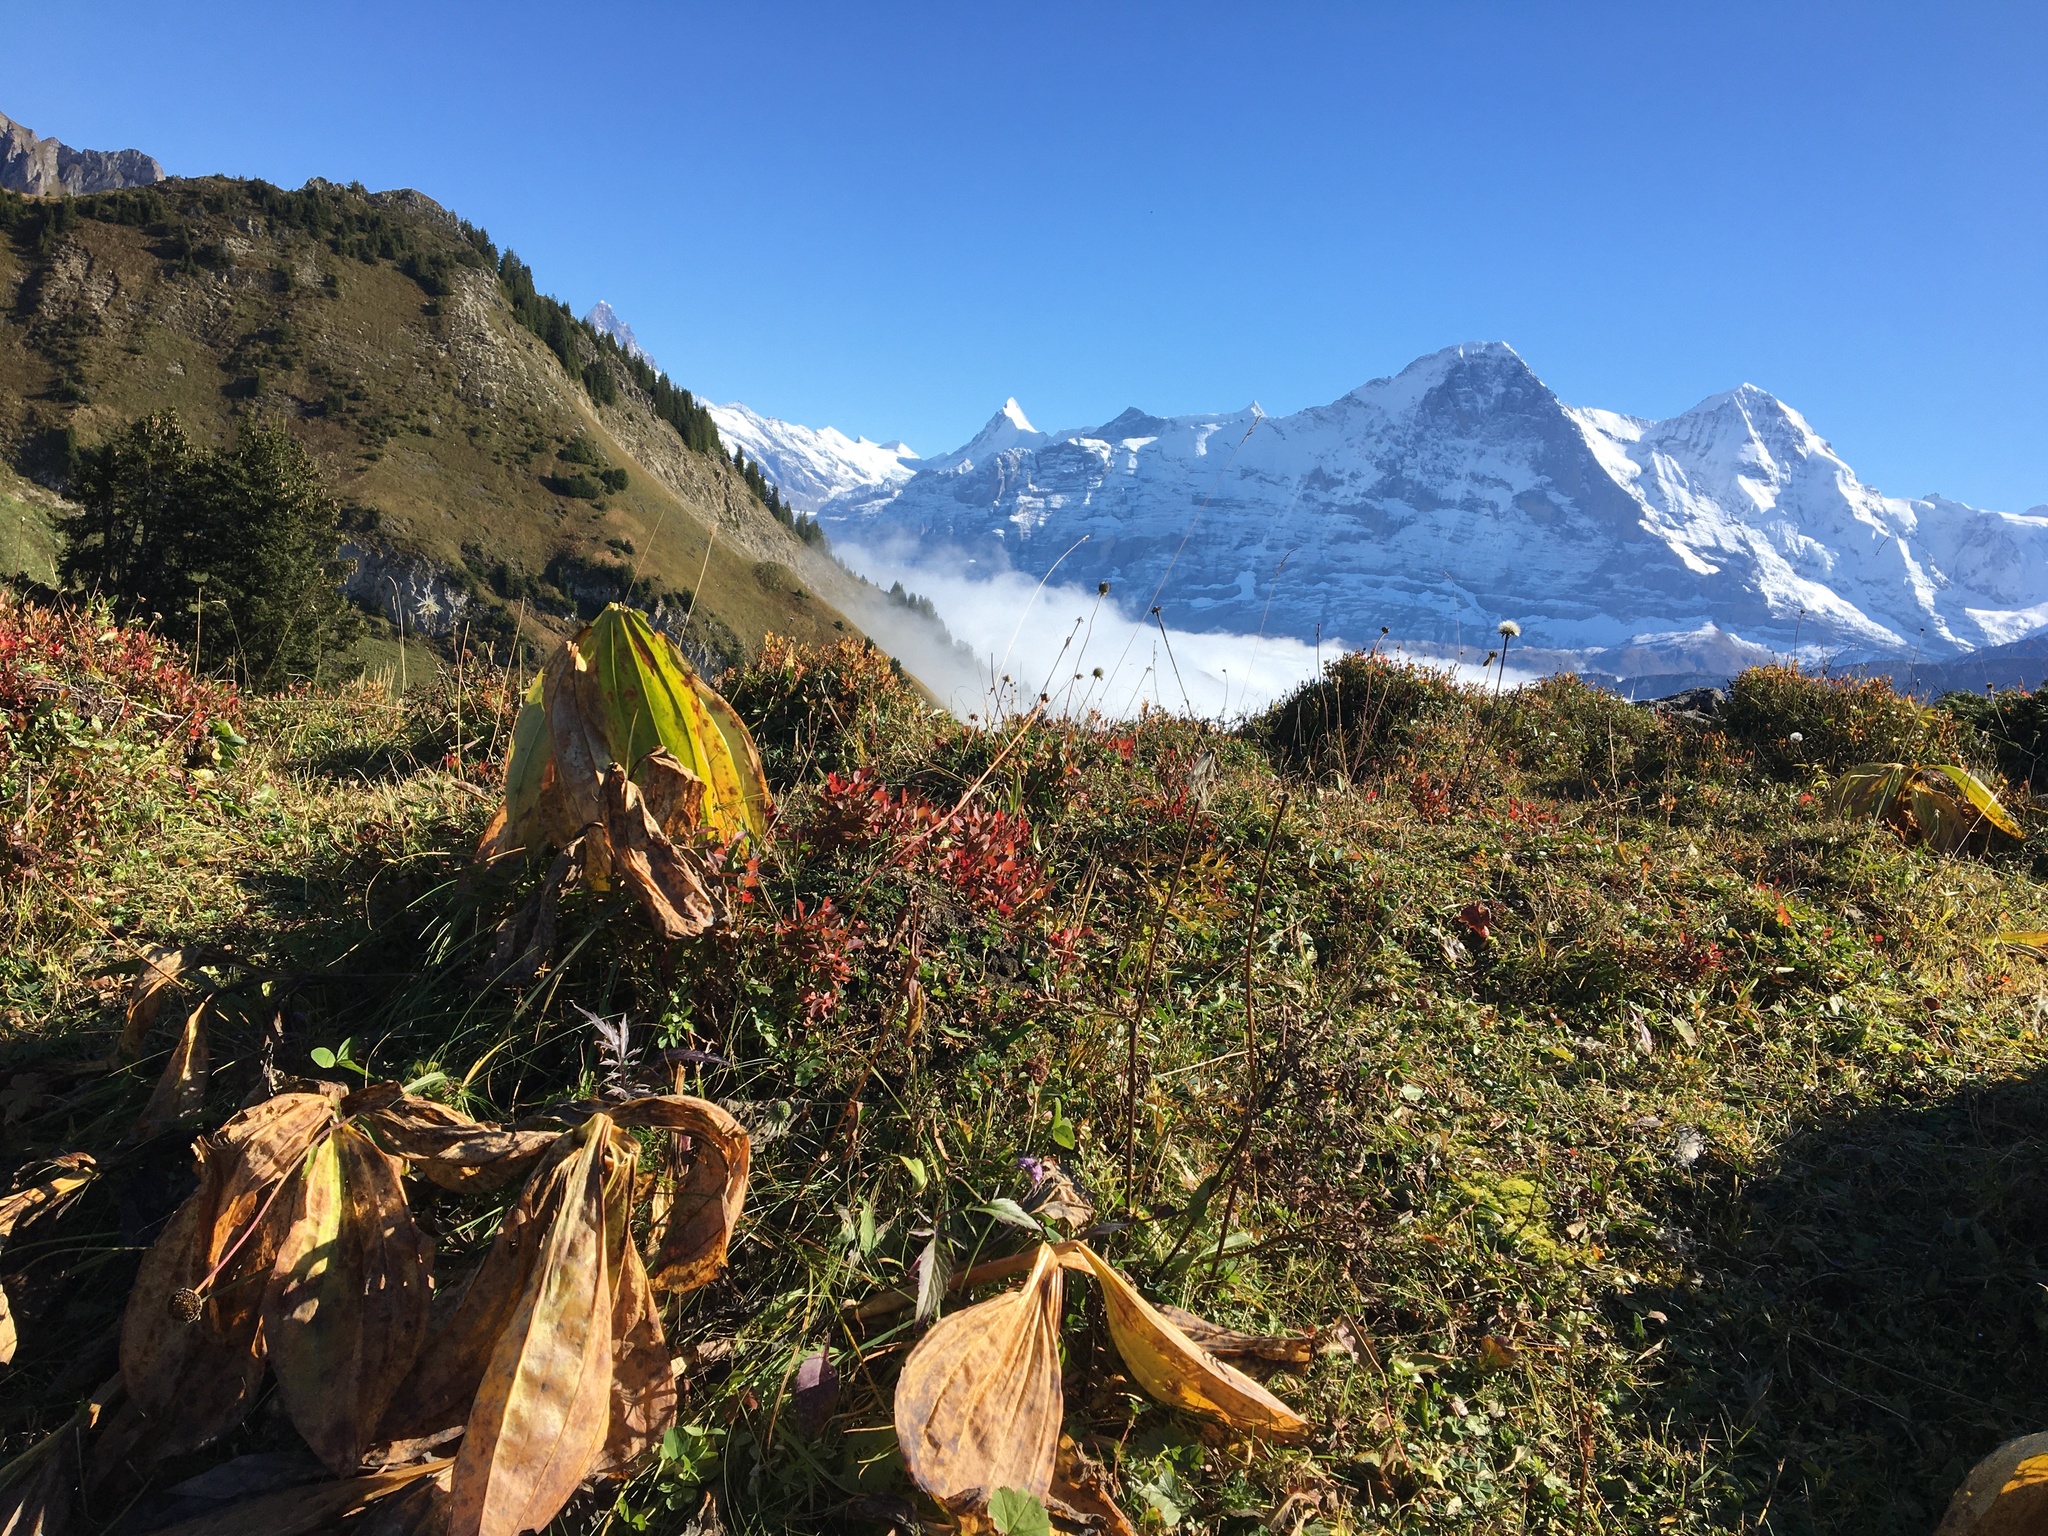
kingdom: Plantae
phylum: Tracheophyta
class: Magnoliopsida
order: Gentianales
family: Gentianaceae
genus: Gentiana
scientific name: Gentiana lutea
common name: Great yellow gentian
